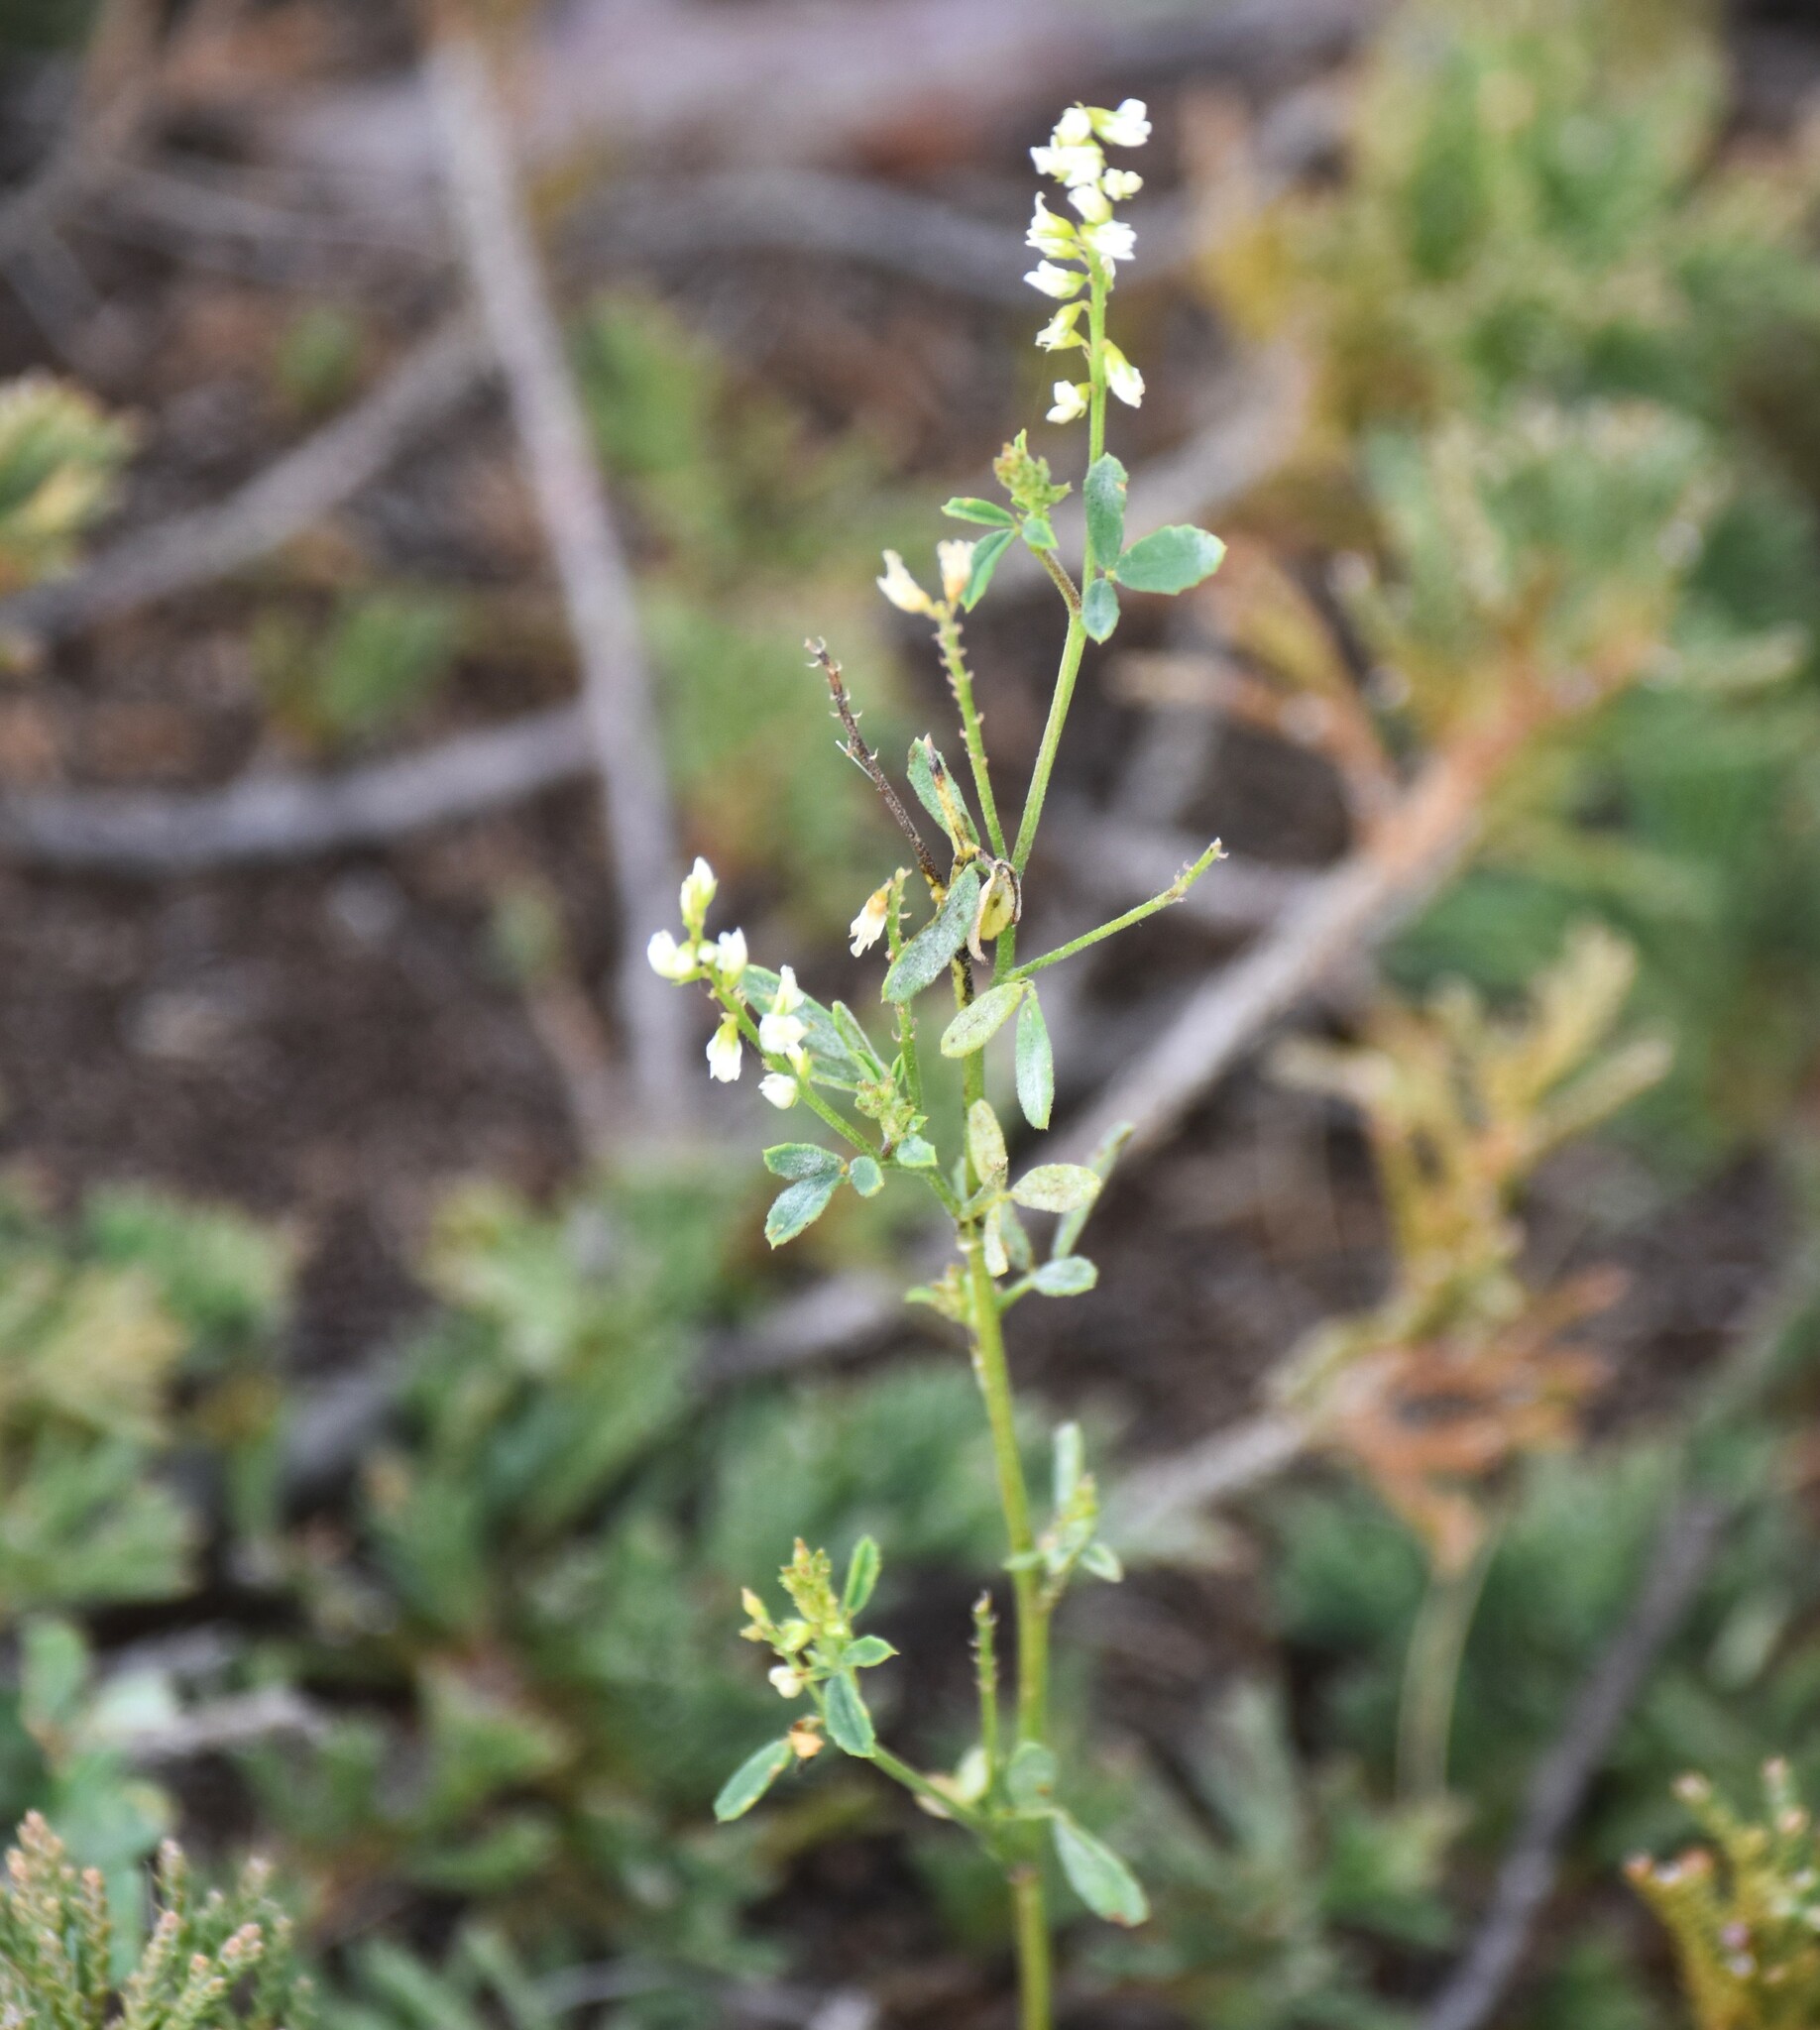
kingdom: Plantae
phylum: Tracheophyta
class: Magnoliopsida
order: Fabales
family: Fabaceae
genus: Melilotus
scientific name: Melilotus albus
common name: White melilot
